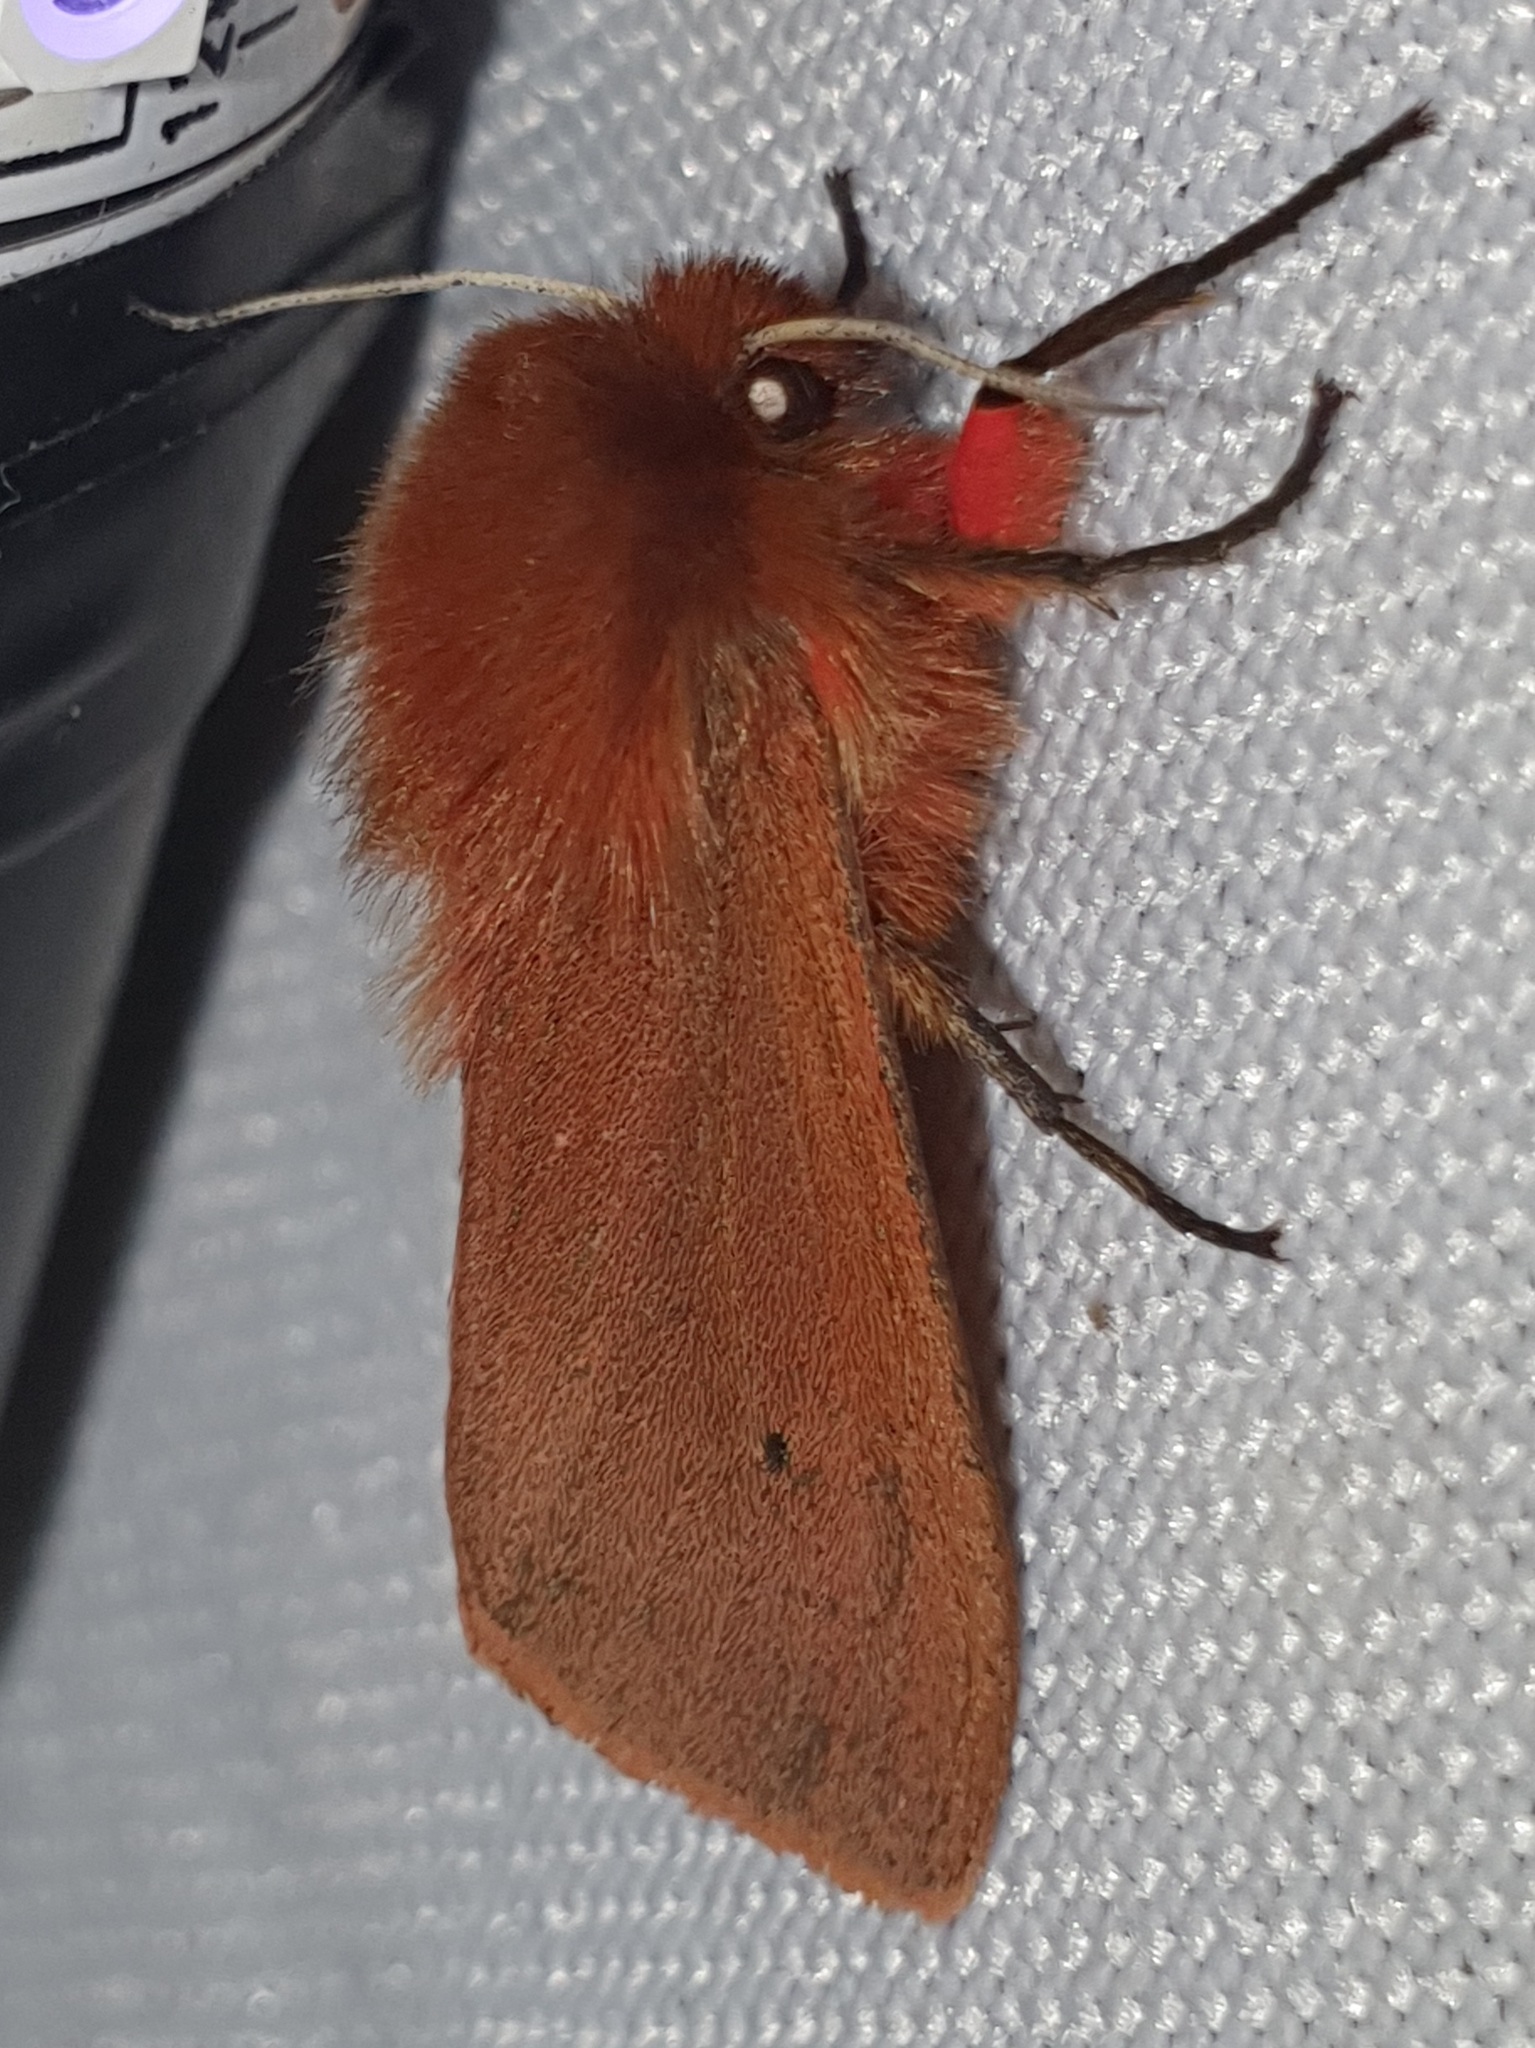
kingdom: Animalia
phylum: Arthropoda
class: Insecta
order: Lepidoptera
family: Erebidae
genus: Phragmatobia
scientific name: Phragmatobia fuliginosa
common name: Ruby tiger
